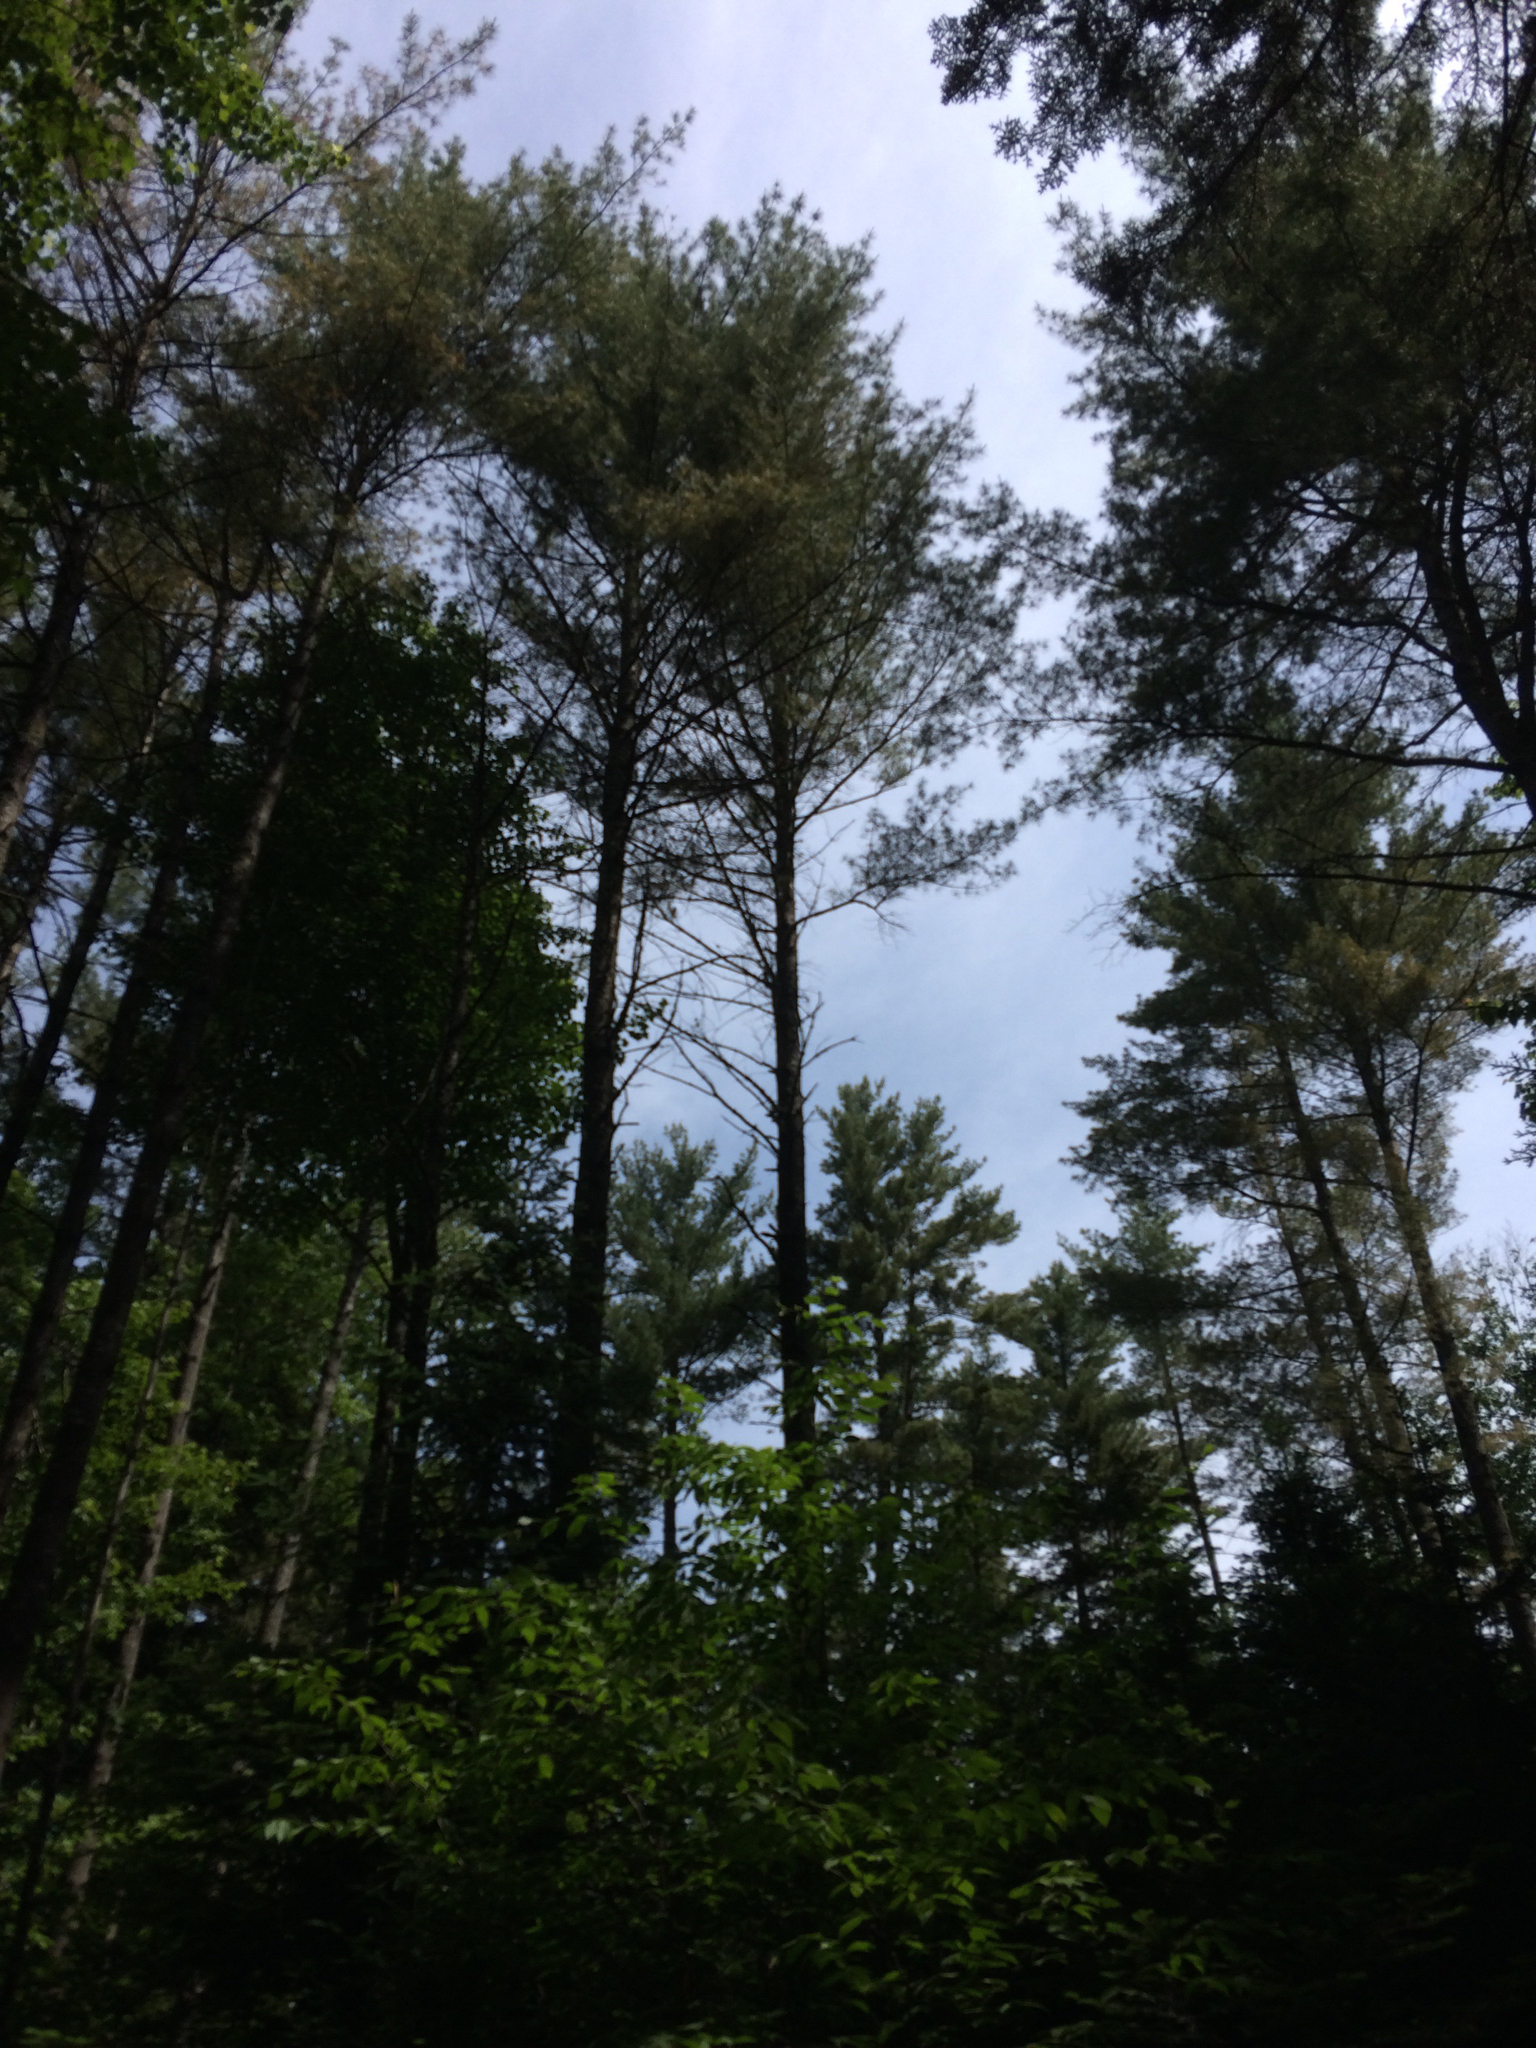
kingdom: Plantae
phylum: Tracheophyta
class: Pinopsida
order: Pinales
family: Pinaceae
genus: Pinus
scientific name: Pinus strobus
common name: Weymouth pine
